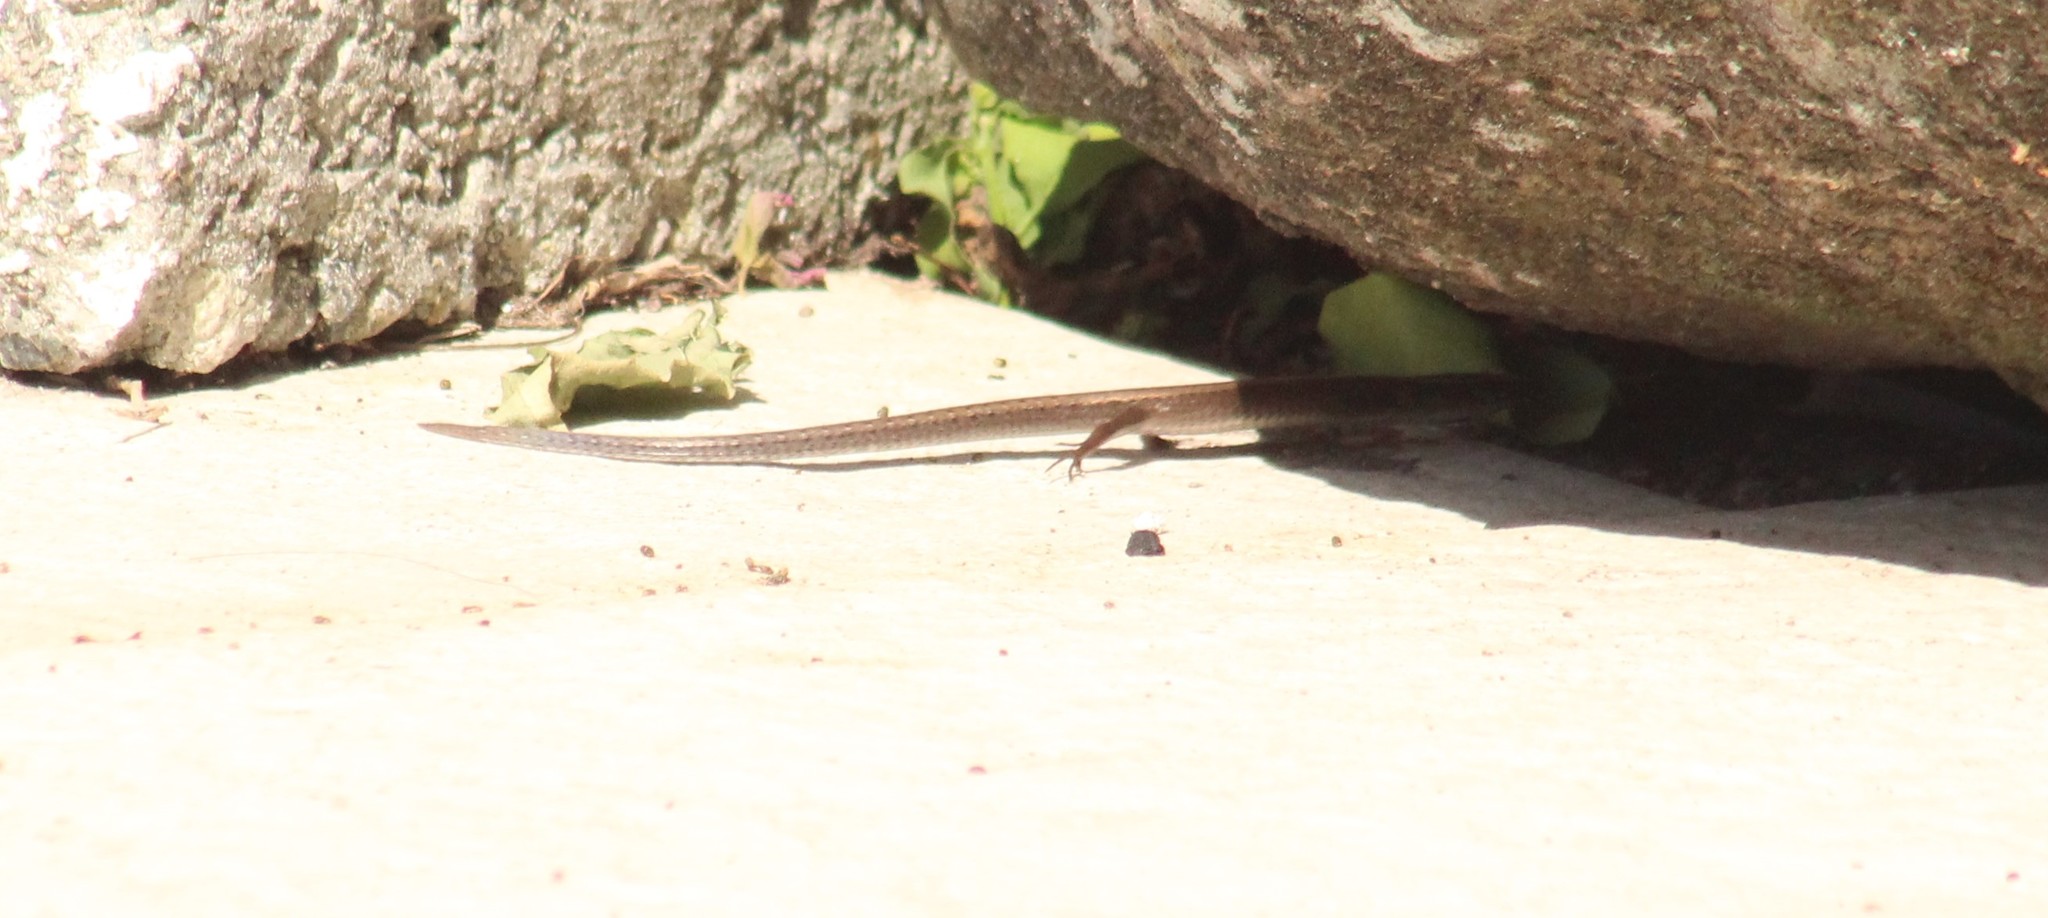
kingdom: Animalia
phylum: Chordata
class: Squamata
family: Gymnophthalmidae
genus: Gymnophthalmus
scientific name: Gymnophthalmus underwoodi
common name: Underwood's spectacled tegu
